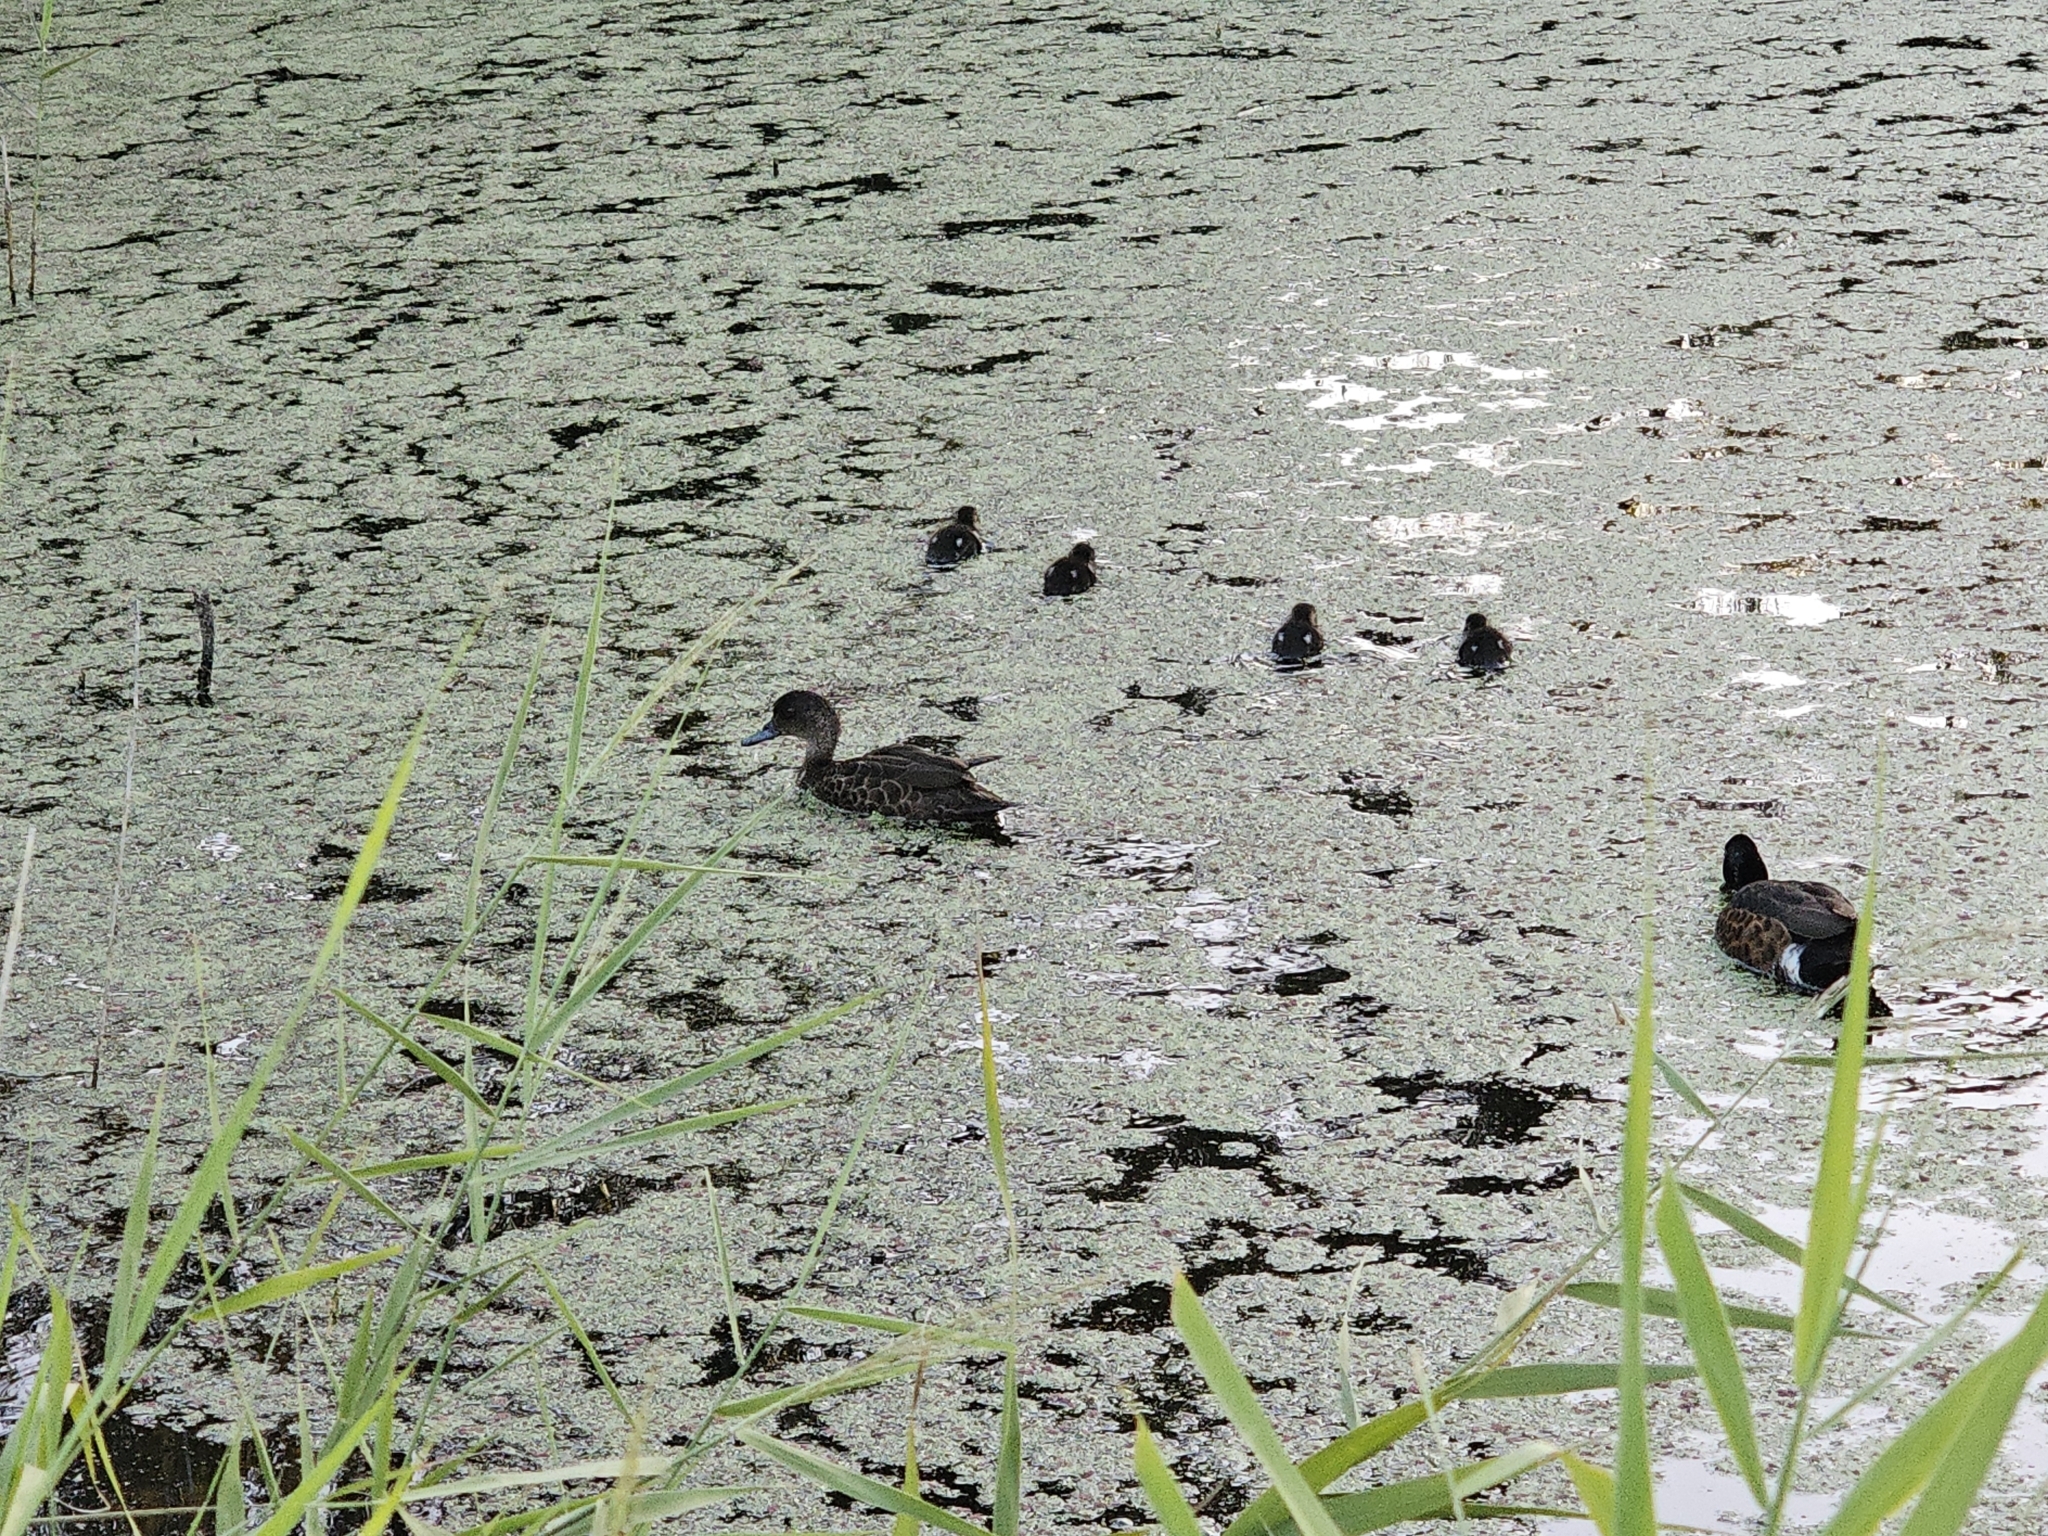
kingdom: Animalia
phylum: Chordata
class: Aves
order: Anseriformes
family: Anatidae
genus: Anas
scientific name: Anas castanea
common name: Chestnut teal
